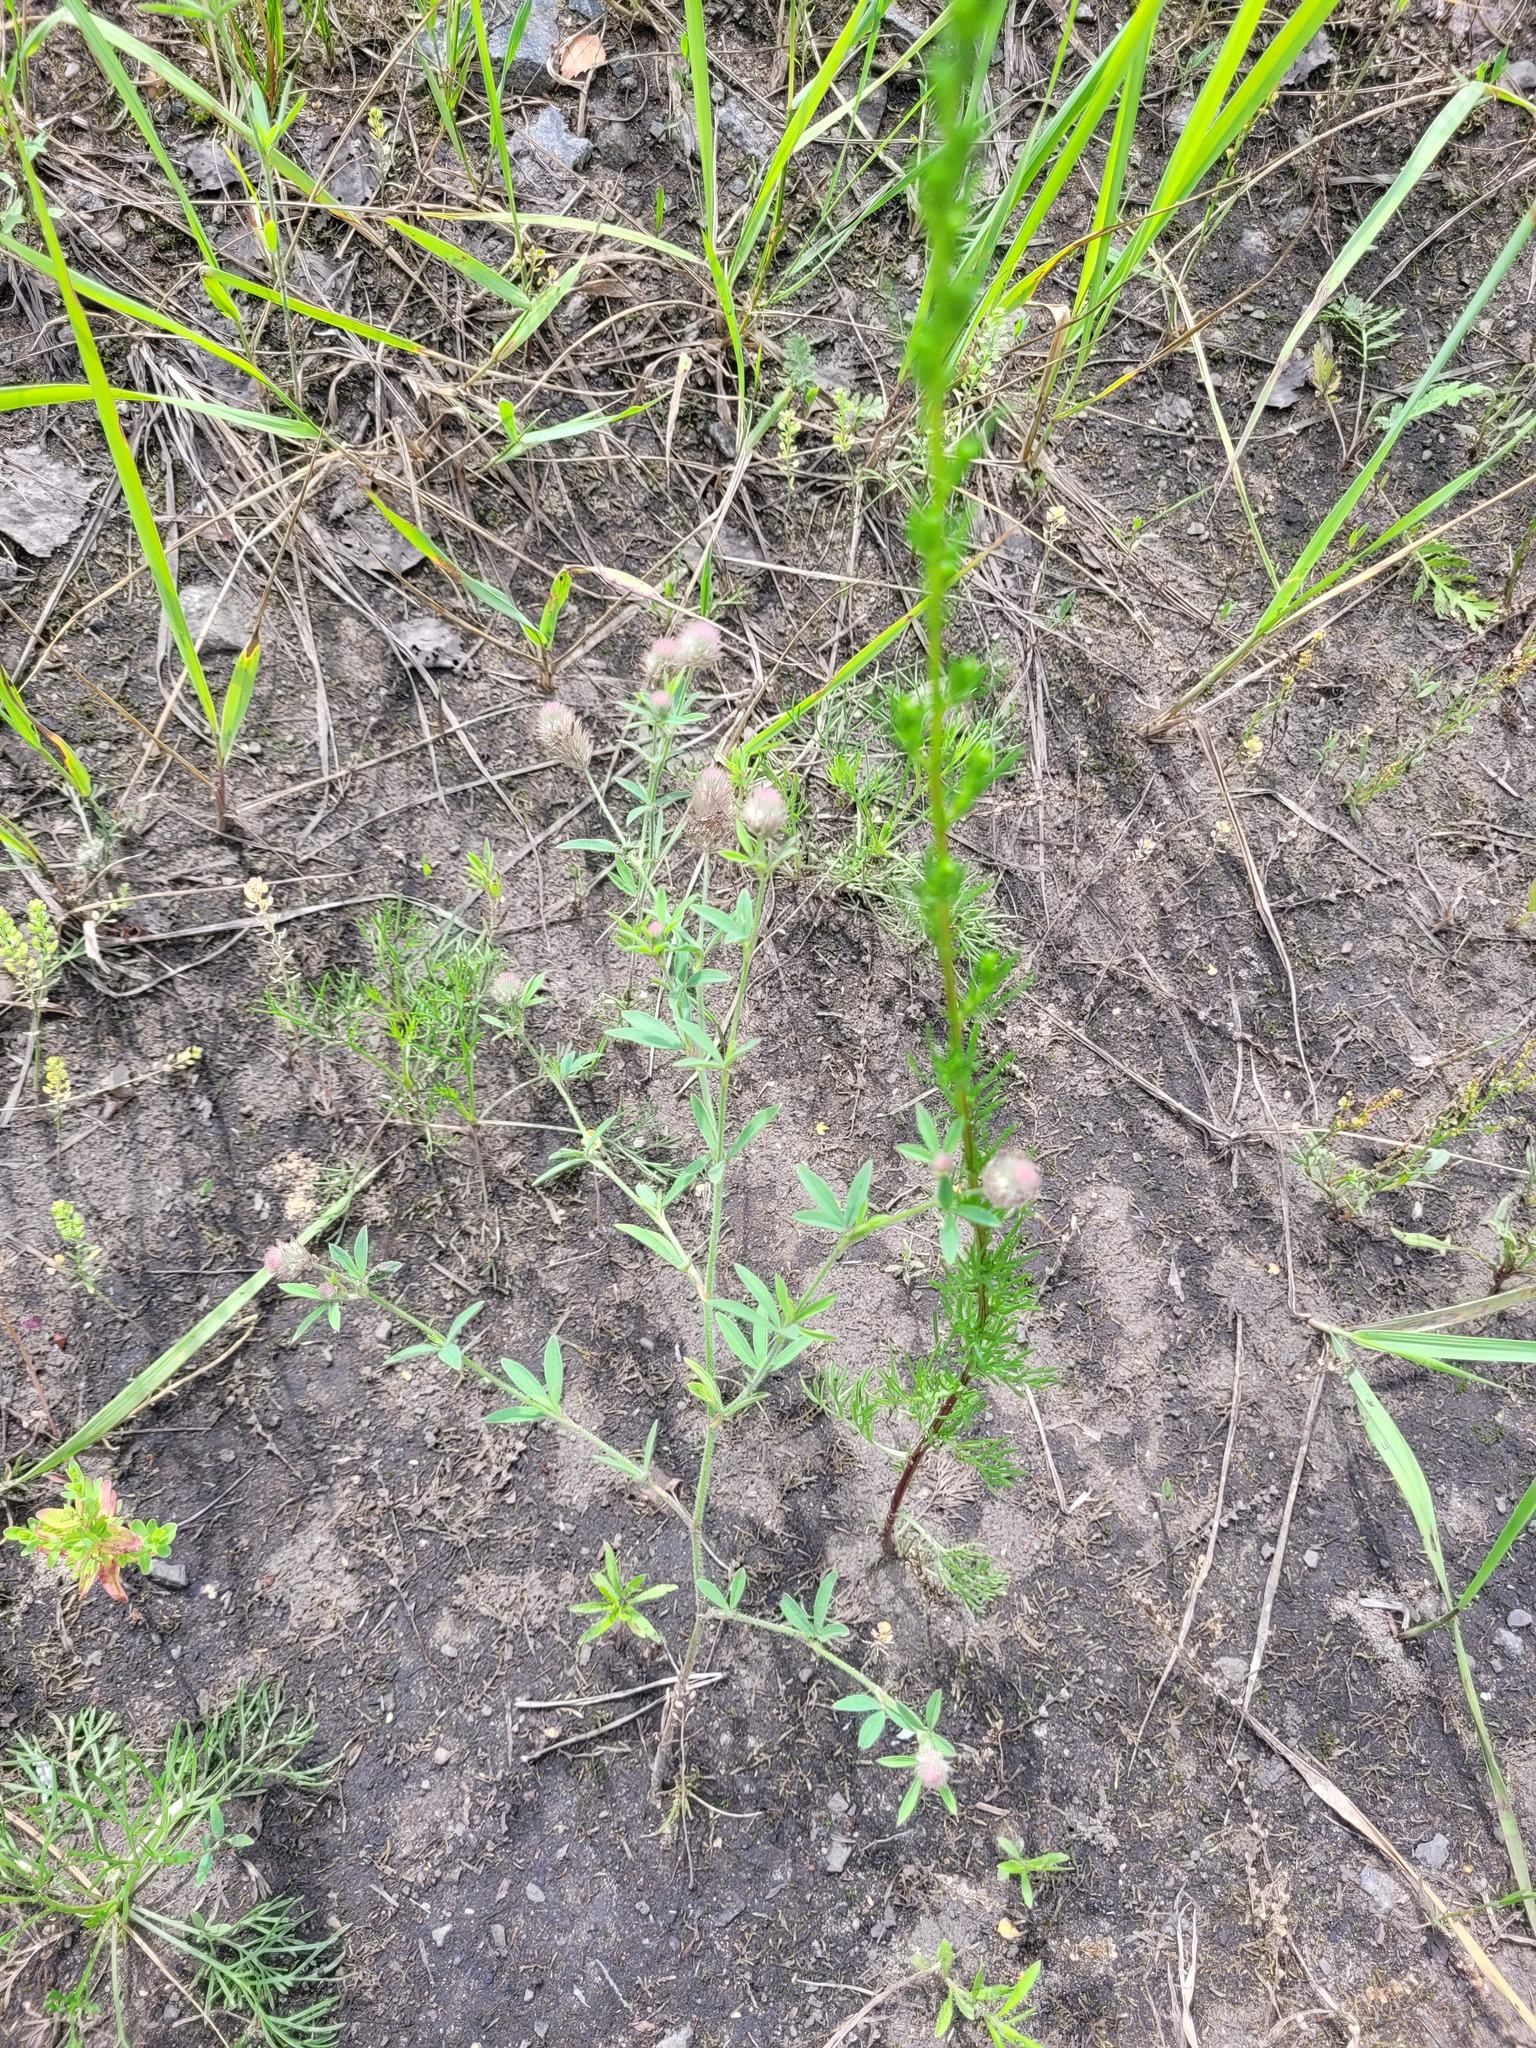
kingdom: Plantae
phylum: Tracheophyta
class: Magnoliopsida
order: Fabales
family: Fabaceae
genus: Trifolium
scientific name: Trifolium arvense
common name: Hare's-foot clover
